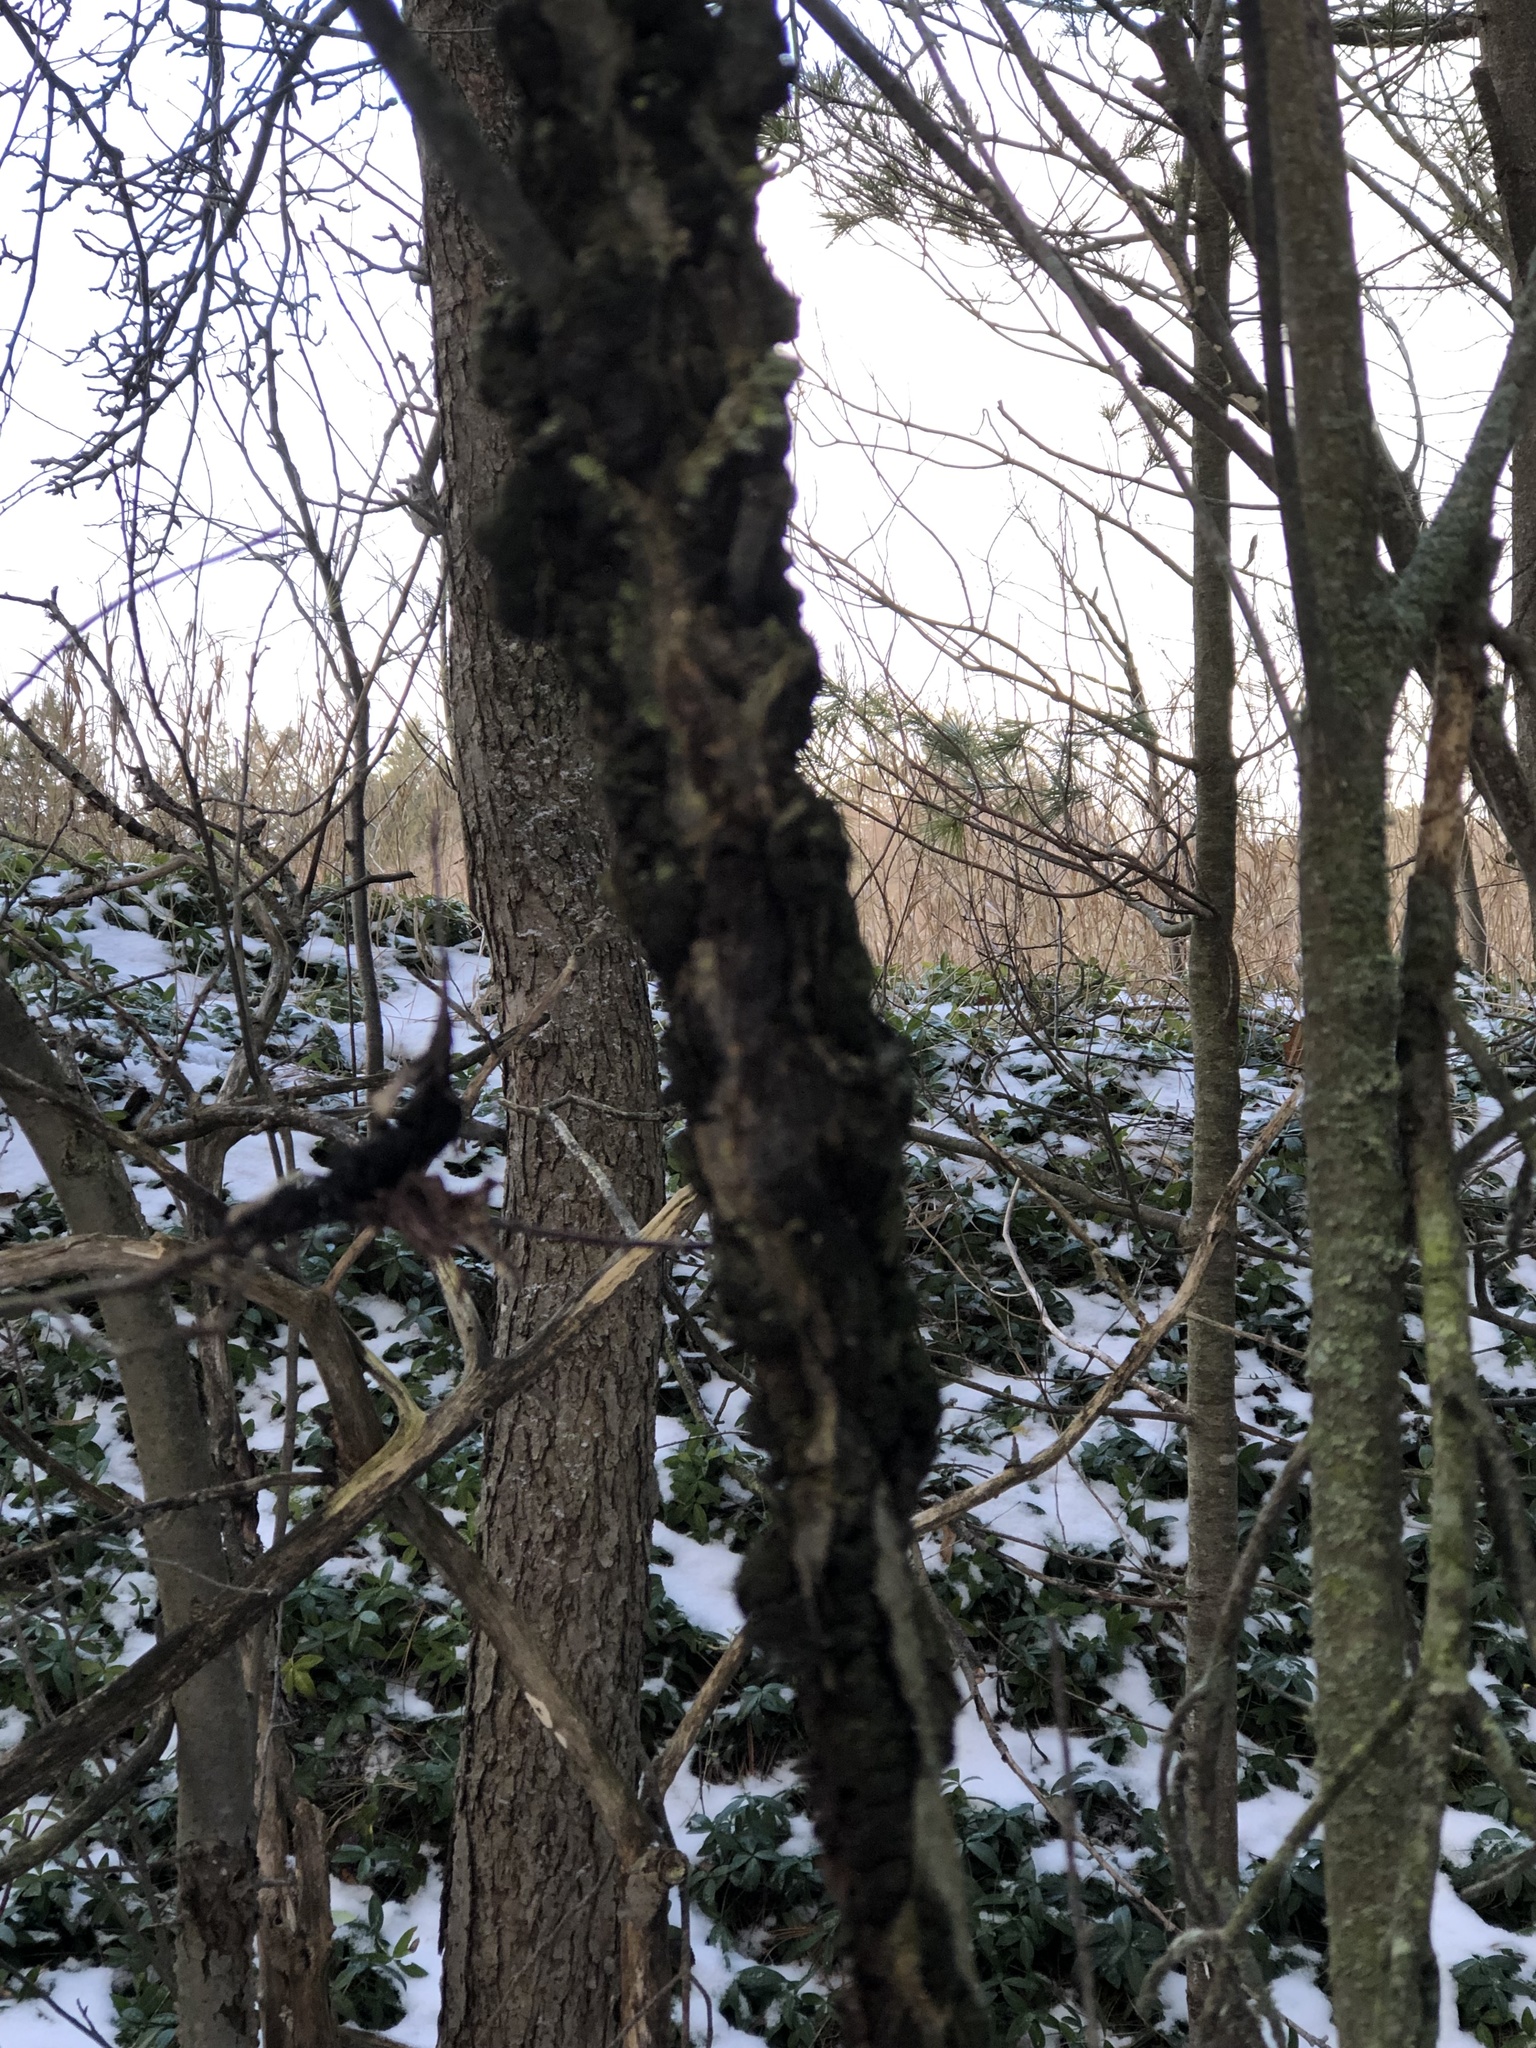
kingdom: Fungi
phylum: Ascomycota
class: Dothideomycetes
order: Venturiales
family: Venturiaceae
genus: Apiosporina
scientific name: Apiosporina morbosa
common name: Black knot
